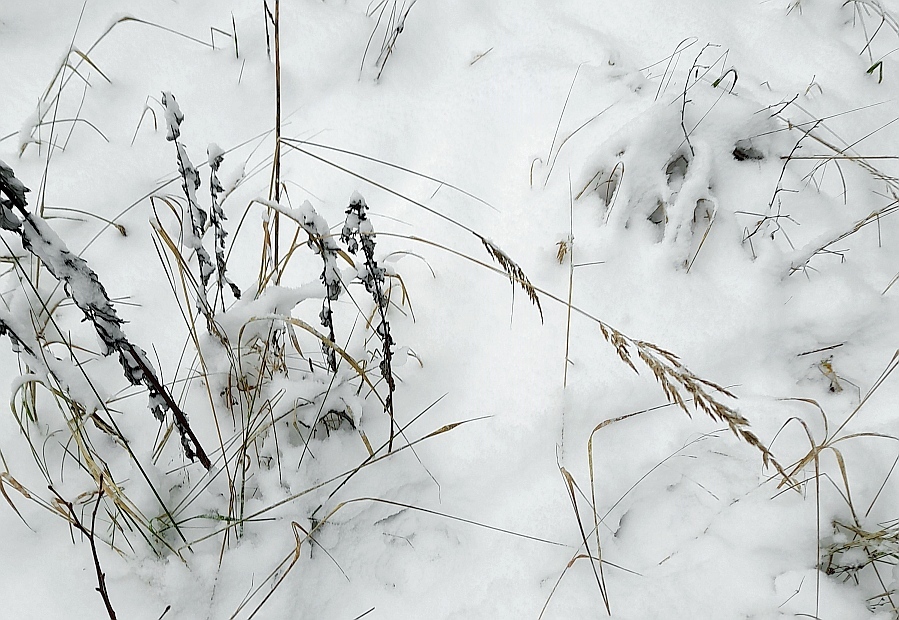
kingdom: Plantae
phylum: Tracheophyta
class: Liliopsida
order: Poales
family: Poaceae
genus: Calamagrostis
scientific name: Calamagrostis epigejos
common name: Wood small-reed
